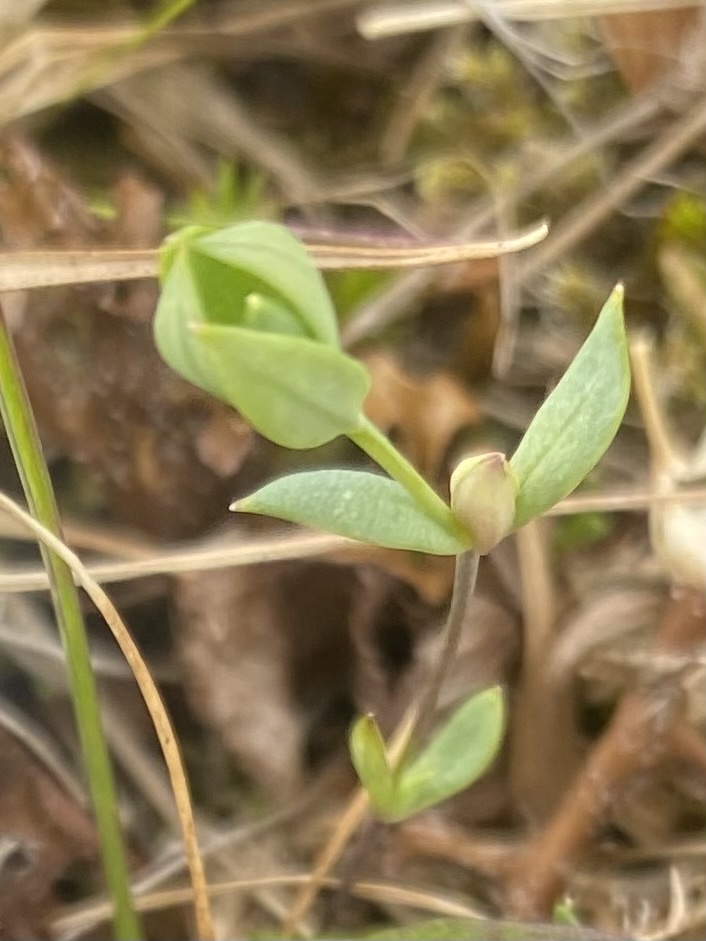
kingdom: Plantae
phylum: Tracheophyta
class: Magnoliopsida
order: Caryophyllales
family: Caryophyllaceae
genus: Stellaria
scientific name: Stellaria longipes
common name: Goldie's starwort
